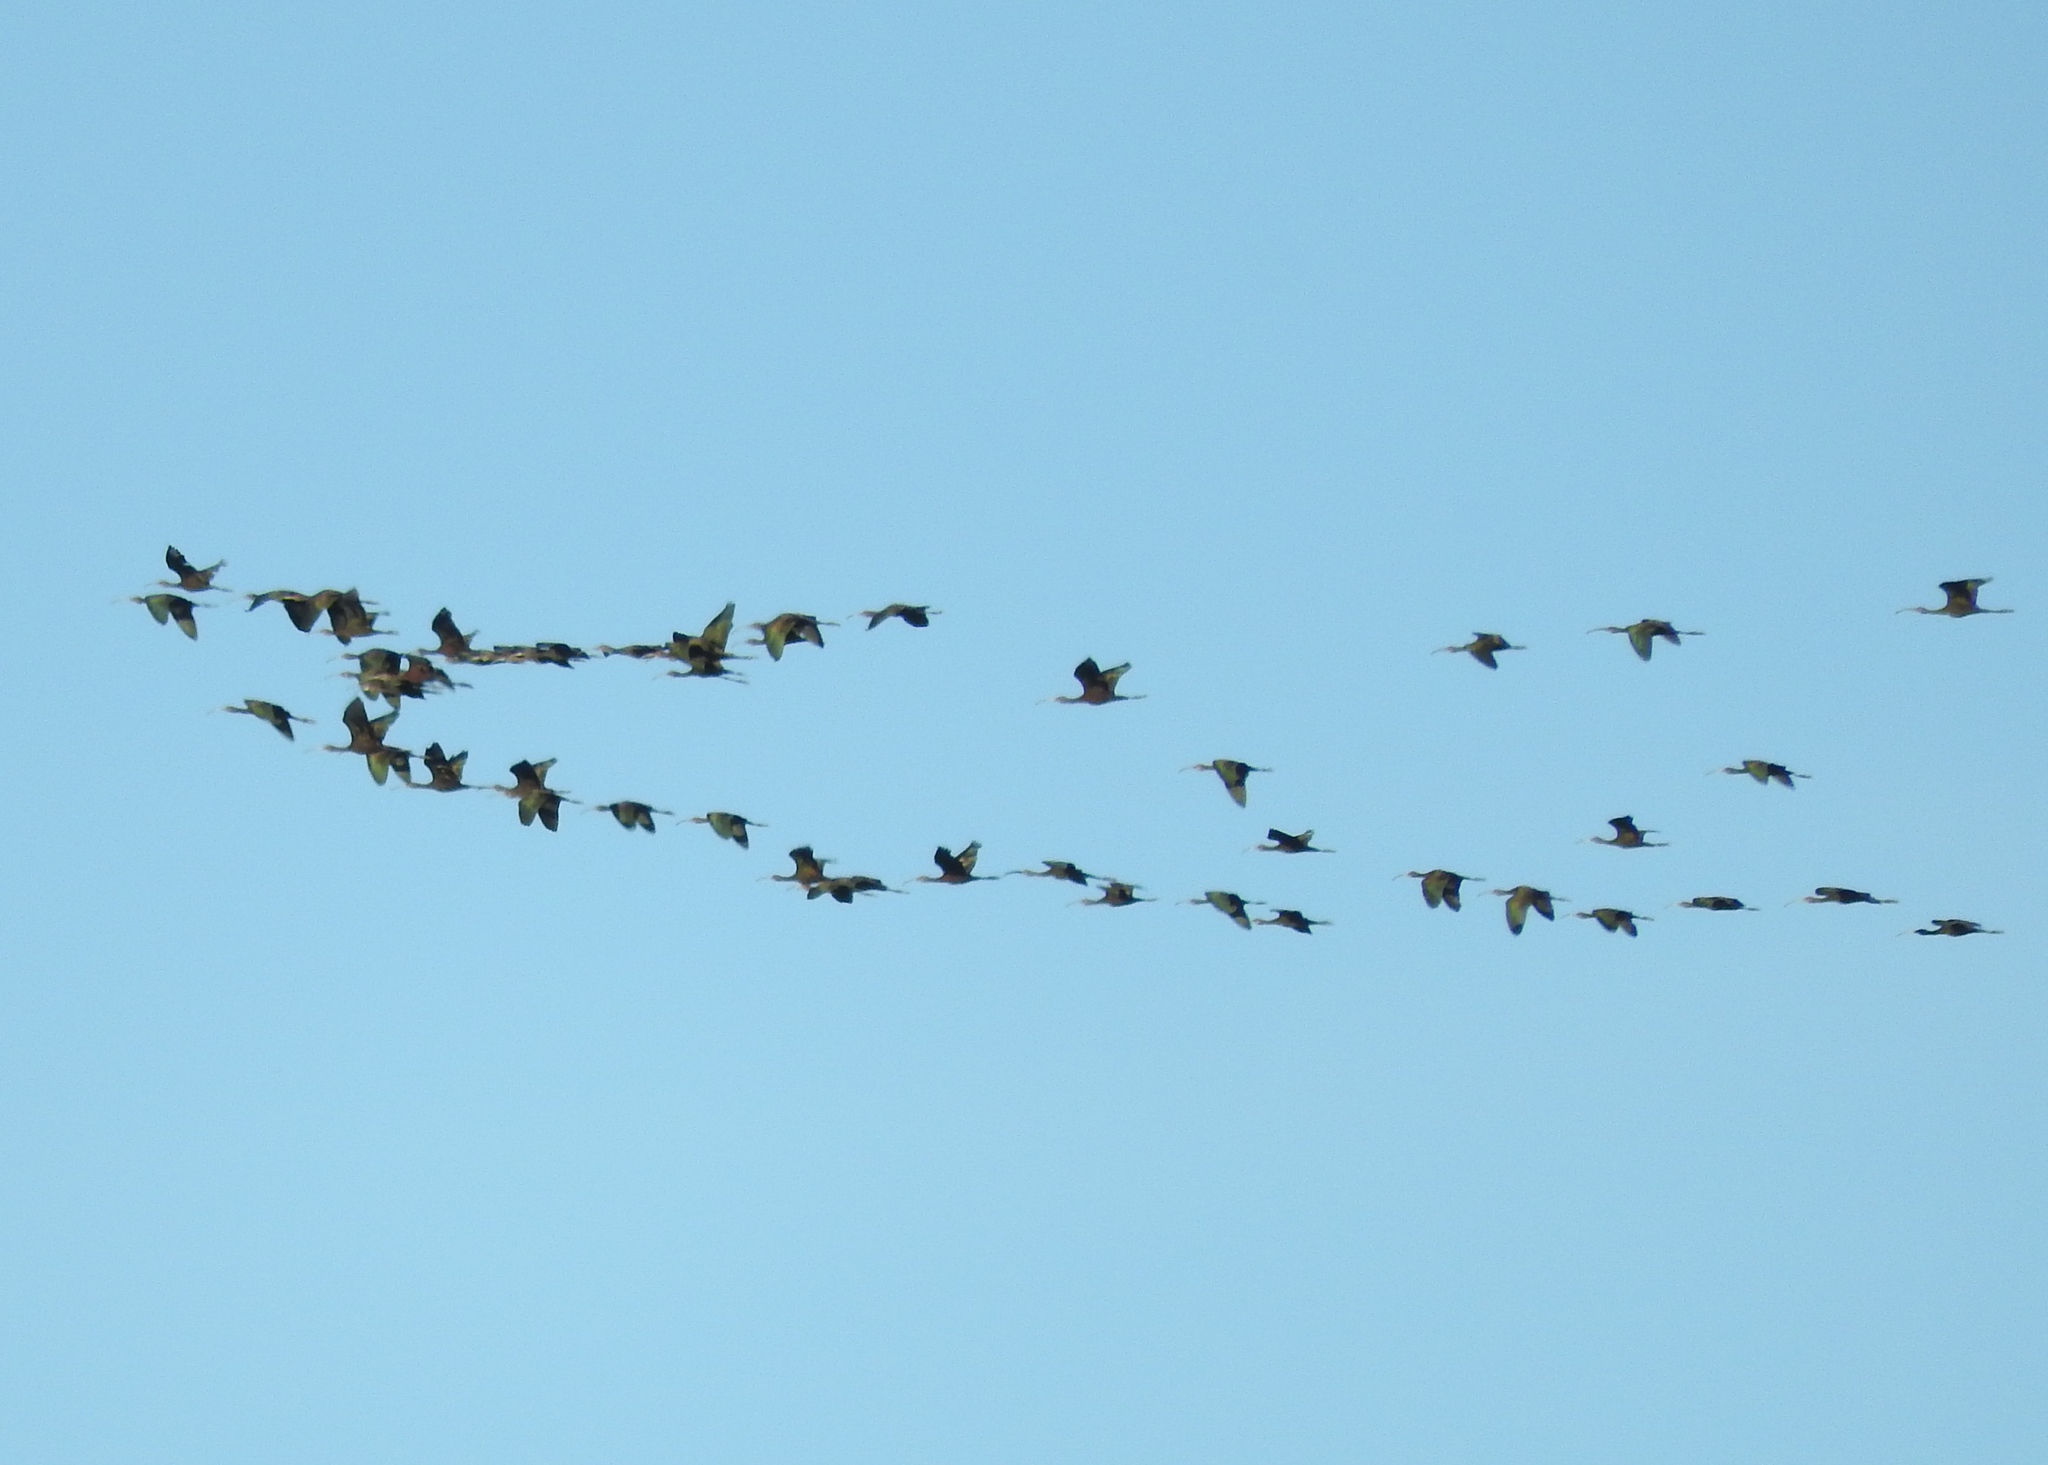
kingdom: Animalia
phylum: Chordata
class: Aves
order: Pelecaniformes
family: Threskiornithidae
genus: Plegadis
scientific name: Plegadis chihi
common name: White-faced ibis
